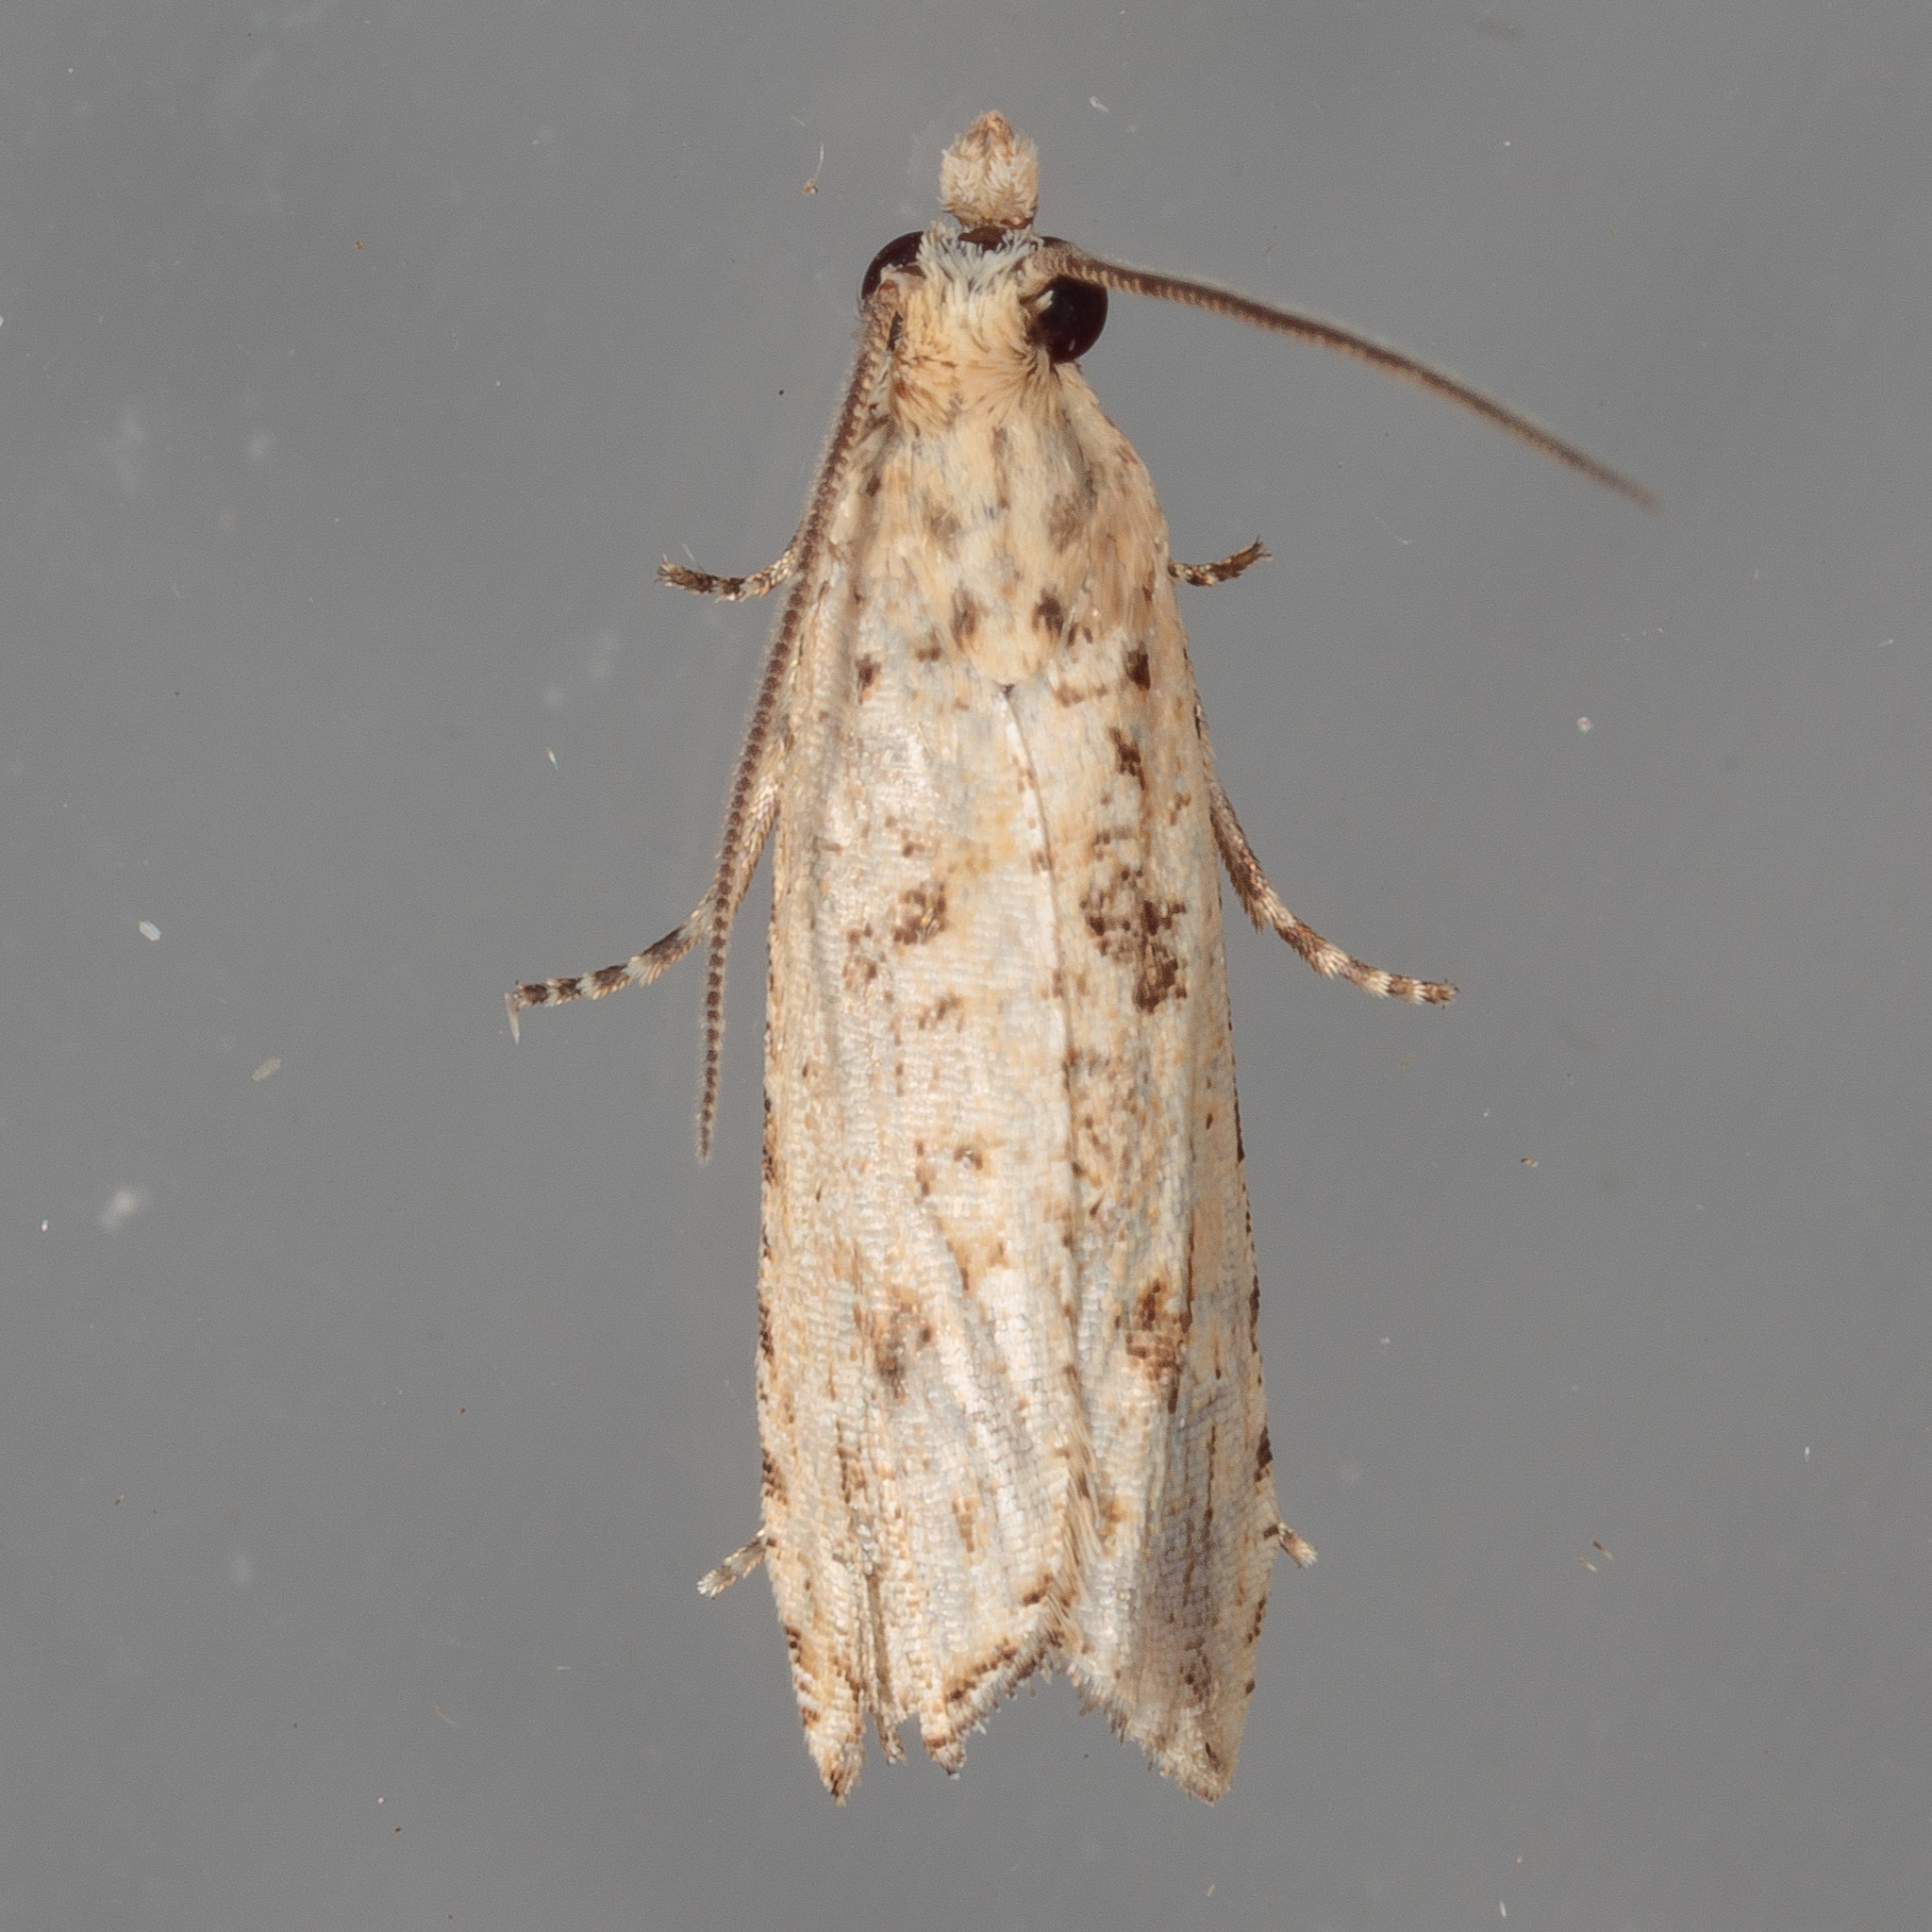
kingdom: Animalia
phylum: Arthropoda
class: Insecta
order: Lepidoptera
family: Tortricidae
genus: Bactra
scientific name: Bactra verutana
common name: Javelin moth
